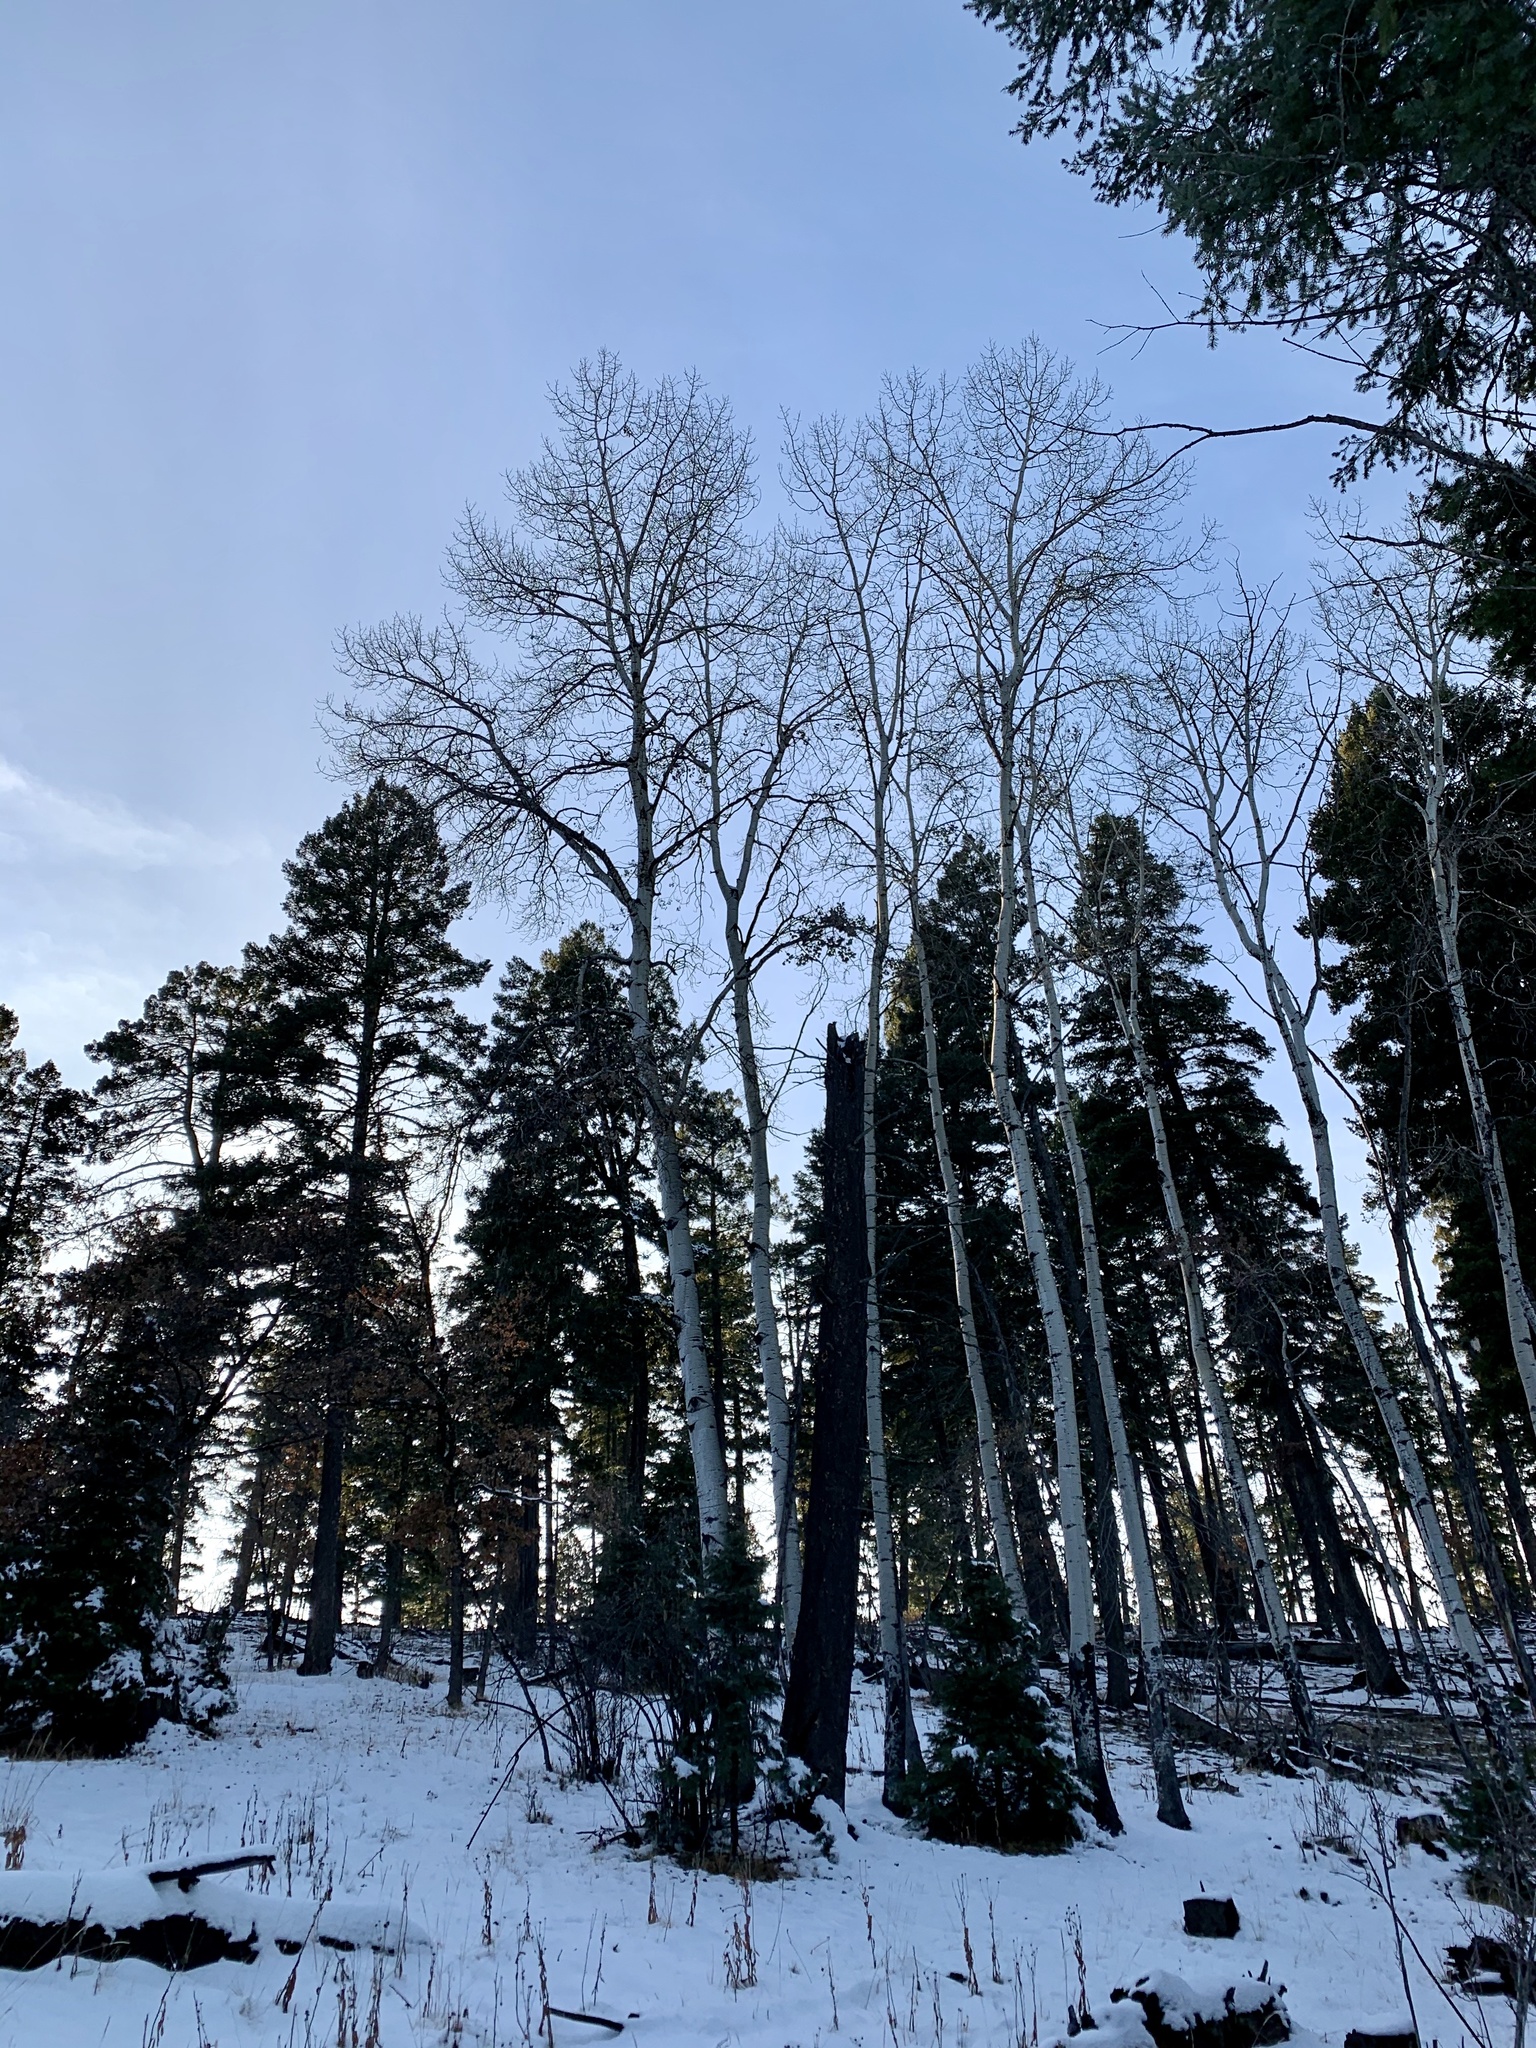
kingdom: Plantae
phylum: Tracheophyta
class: Magnoliopsida
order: Malpighiales
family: Salicaceae
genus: Populus
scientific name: Populus tremuloides
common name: Quaking aspen
